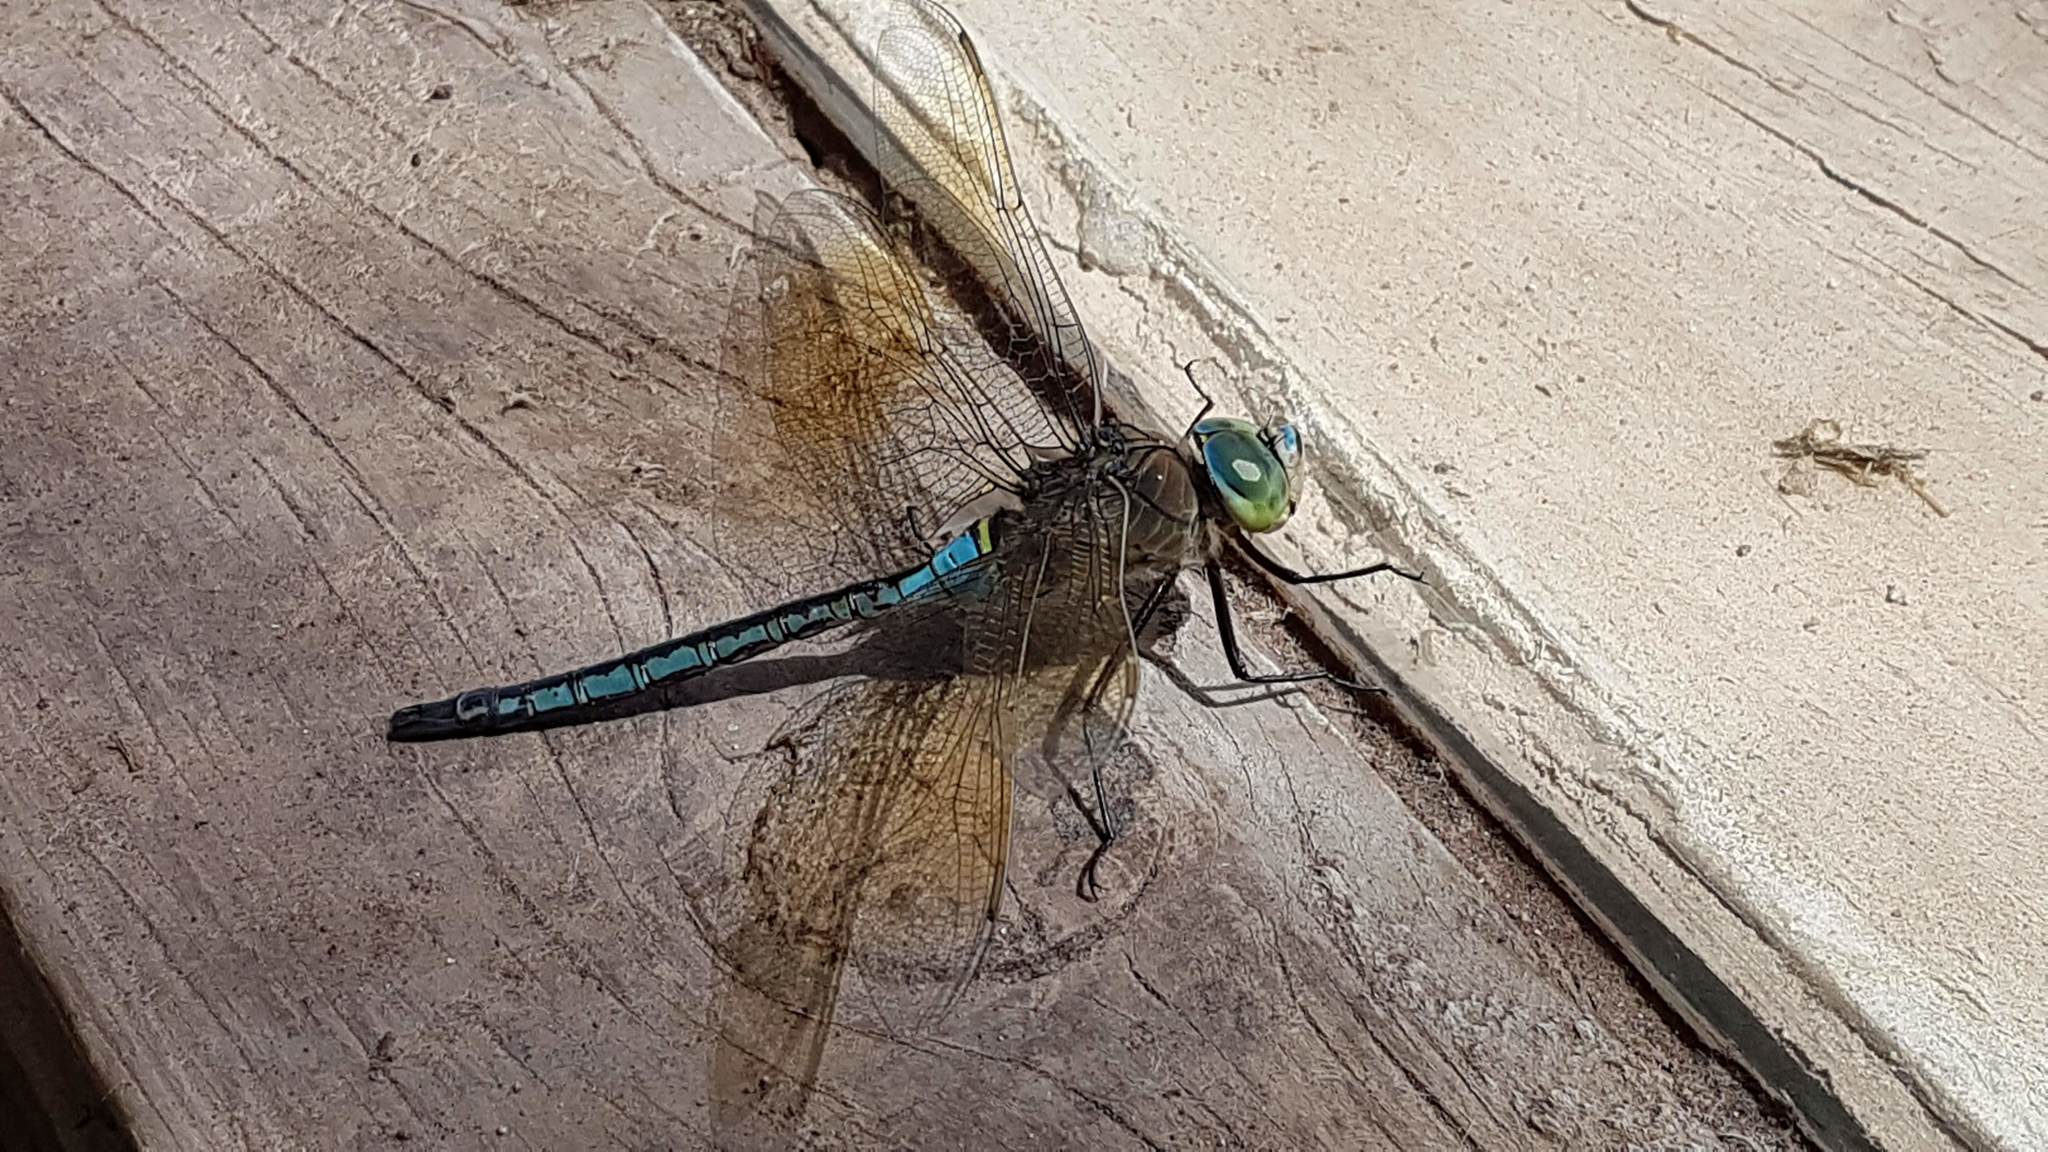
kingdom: Animalia
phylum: Arthropoda
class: Insecta
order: Odonata
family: Aeshnidae
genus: Anax
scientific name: Anax parthenope
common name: Lesser emperor
